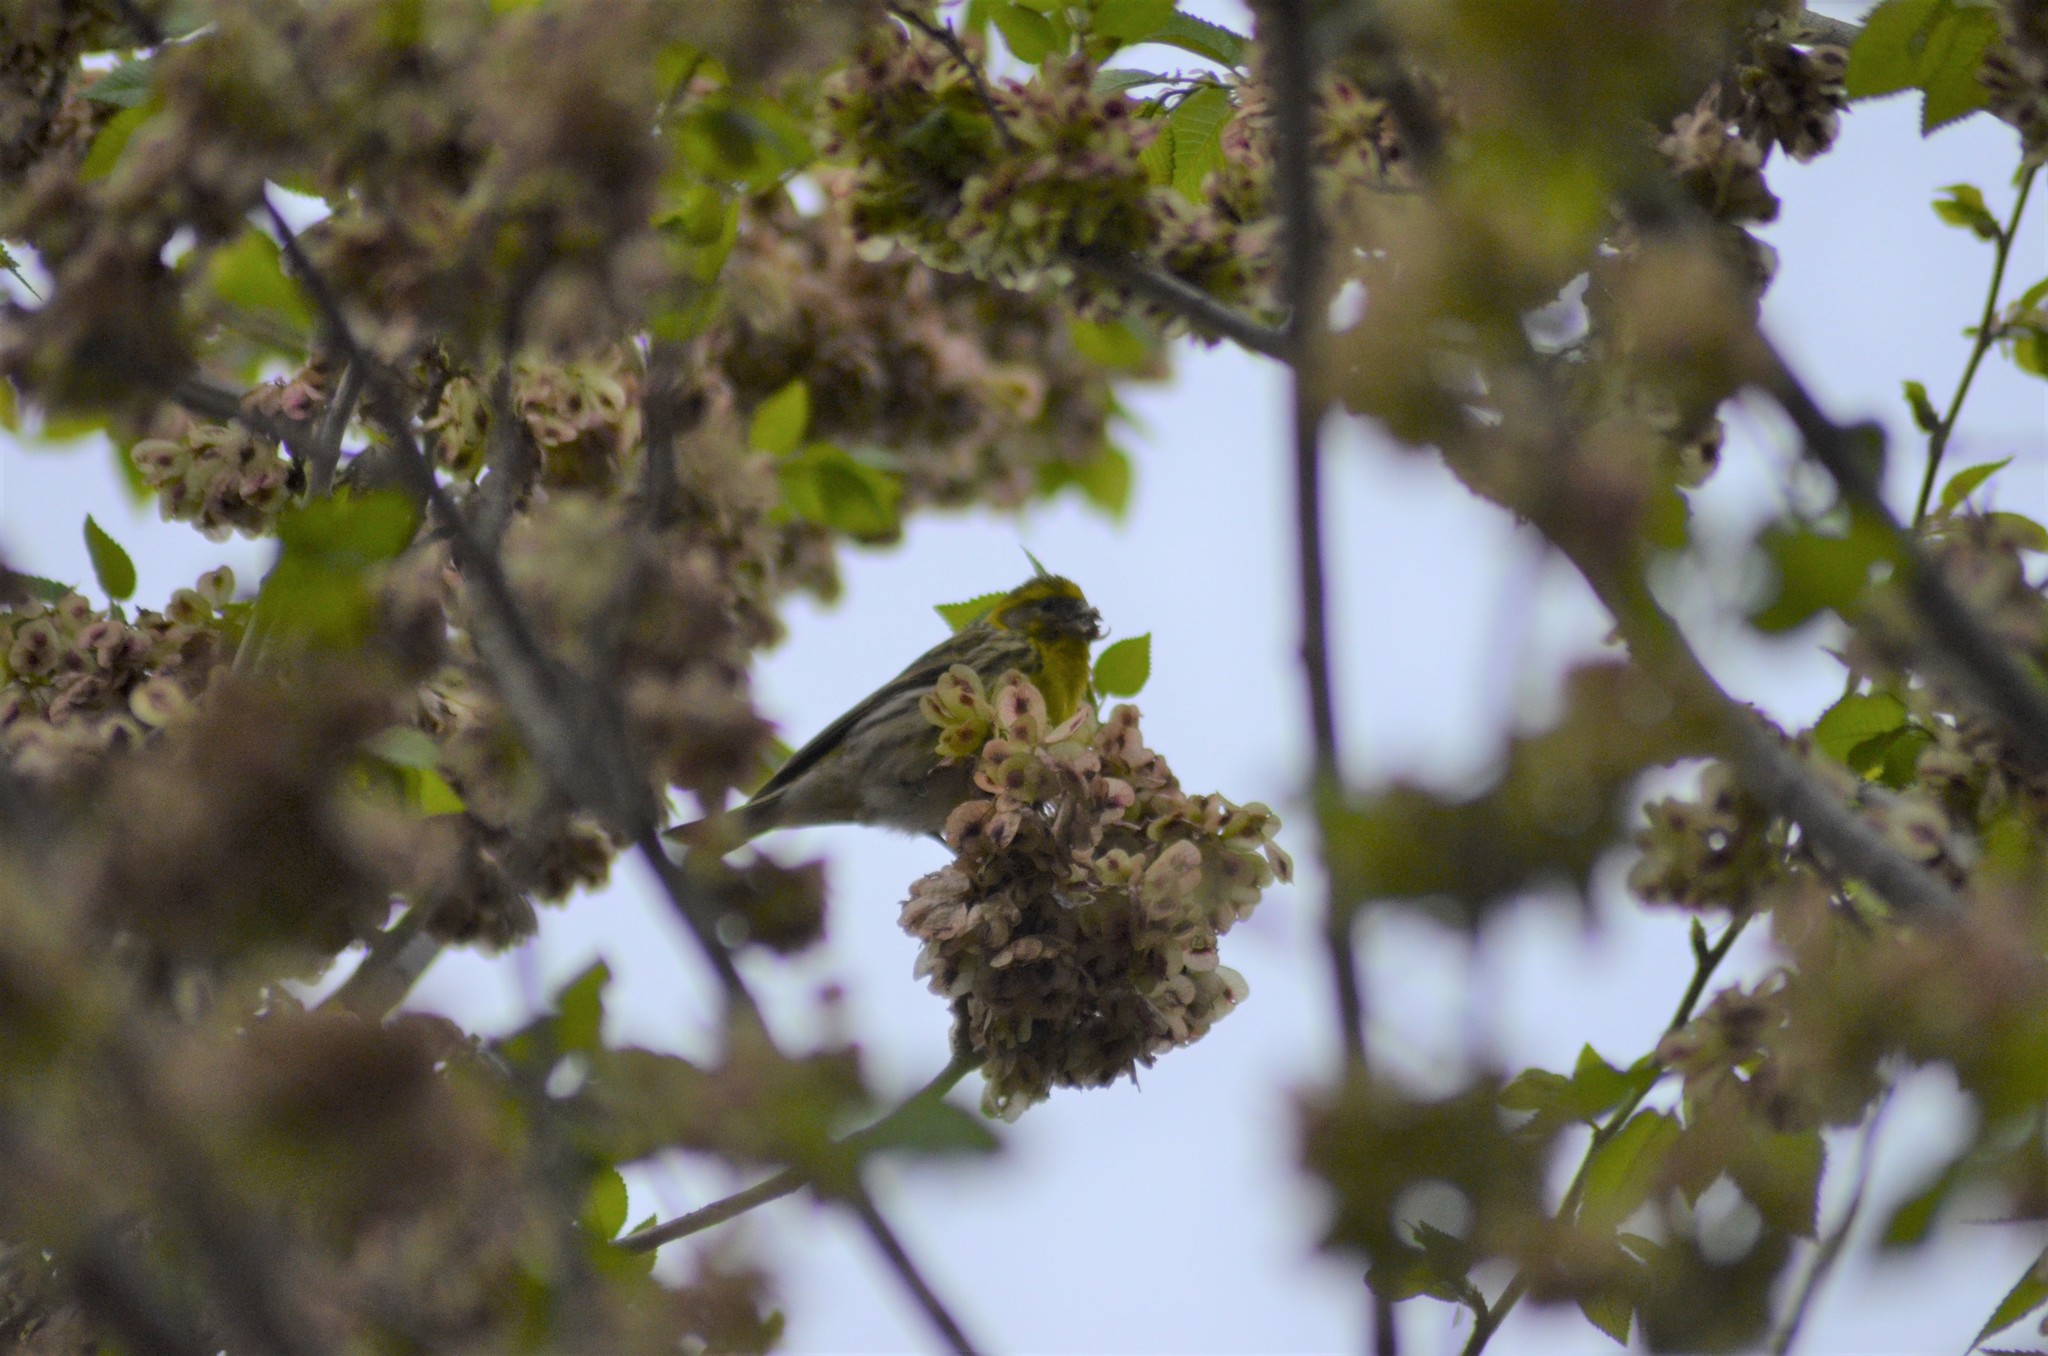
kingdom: Animalia
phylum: Chordata
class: Aves
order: Passeriformes
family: Fringillidae
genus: Serinus
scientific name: Serinus serinus
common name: European serin
